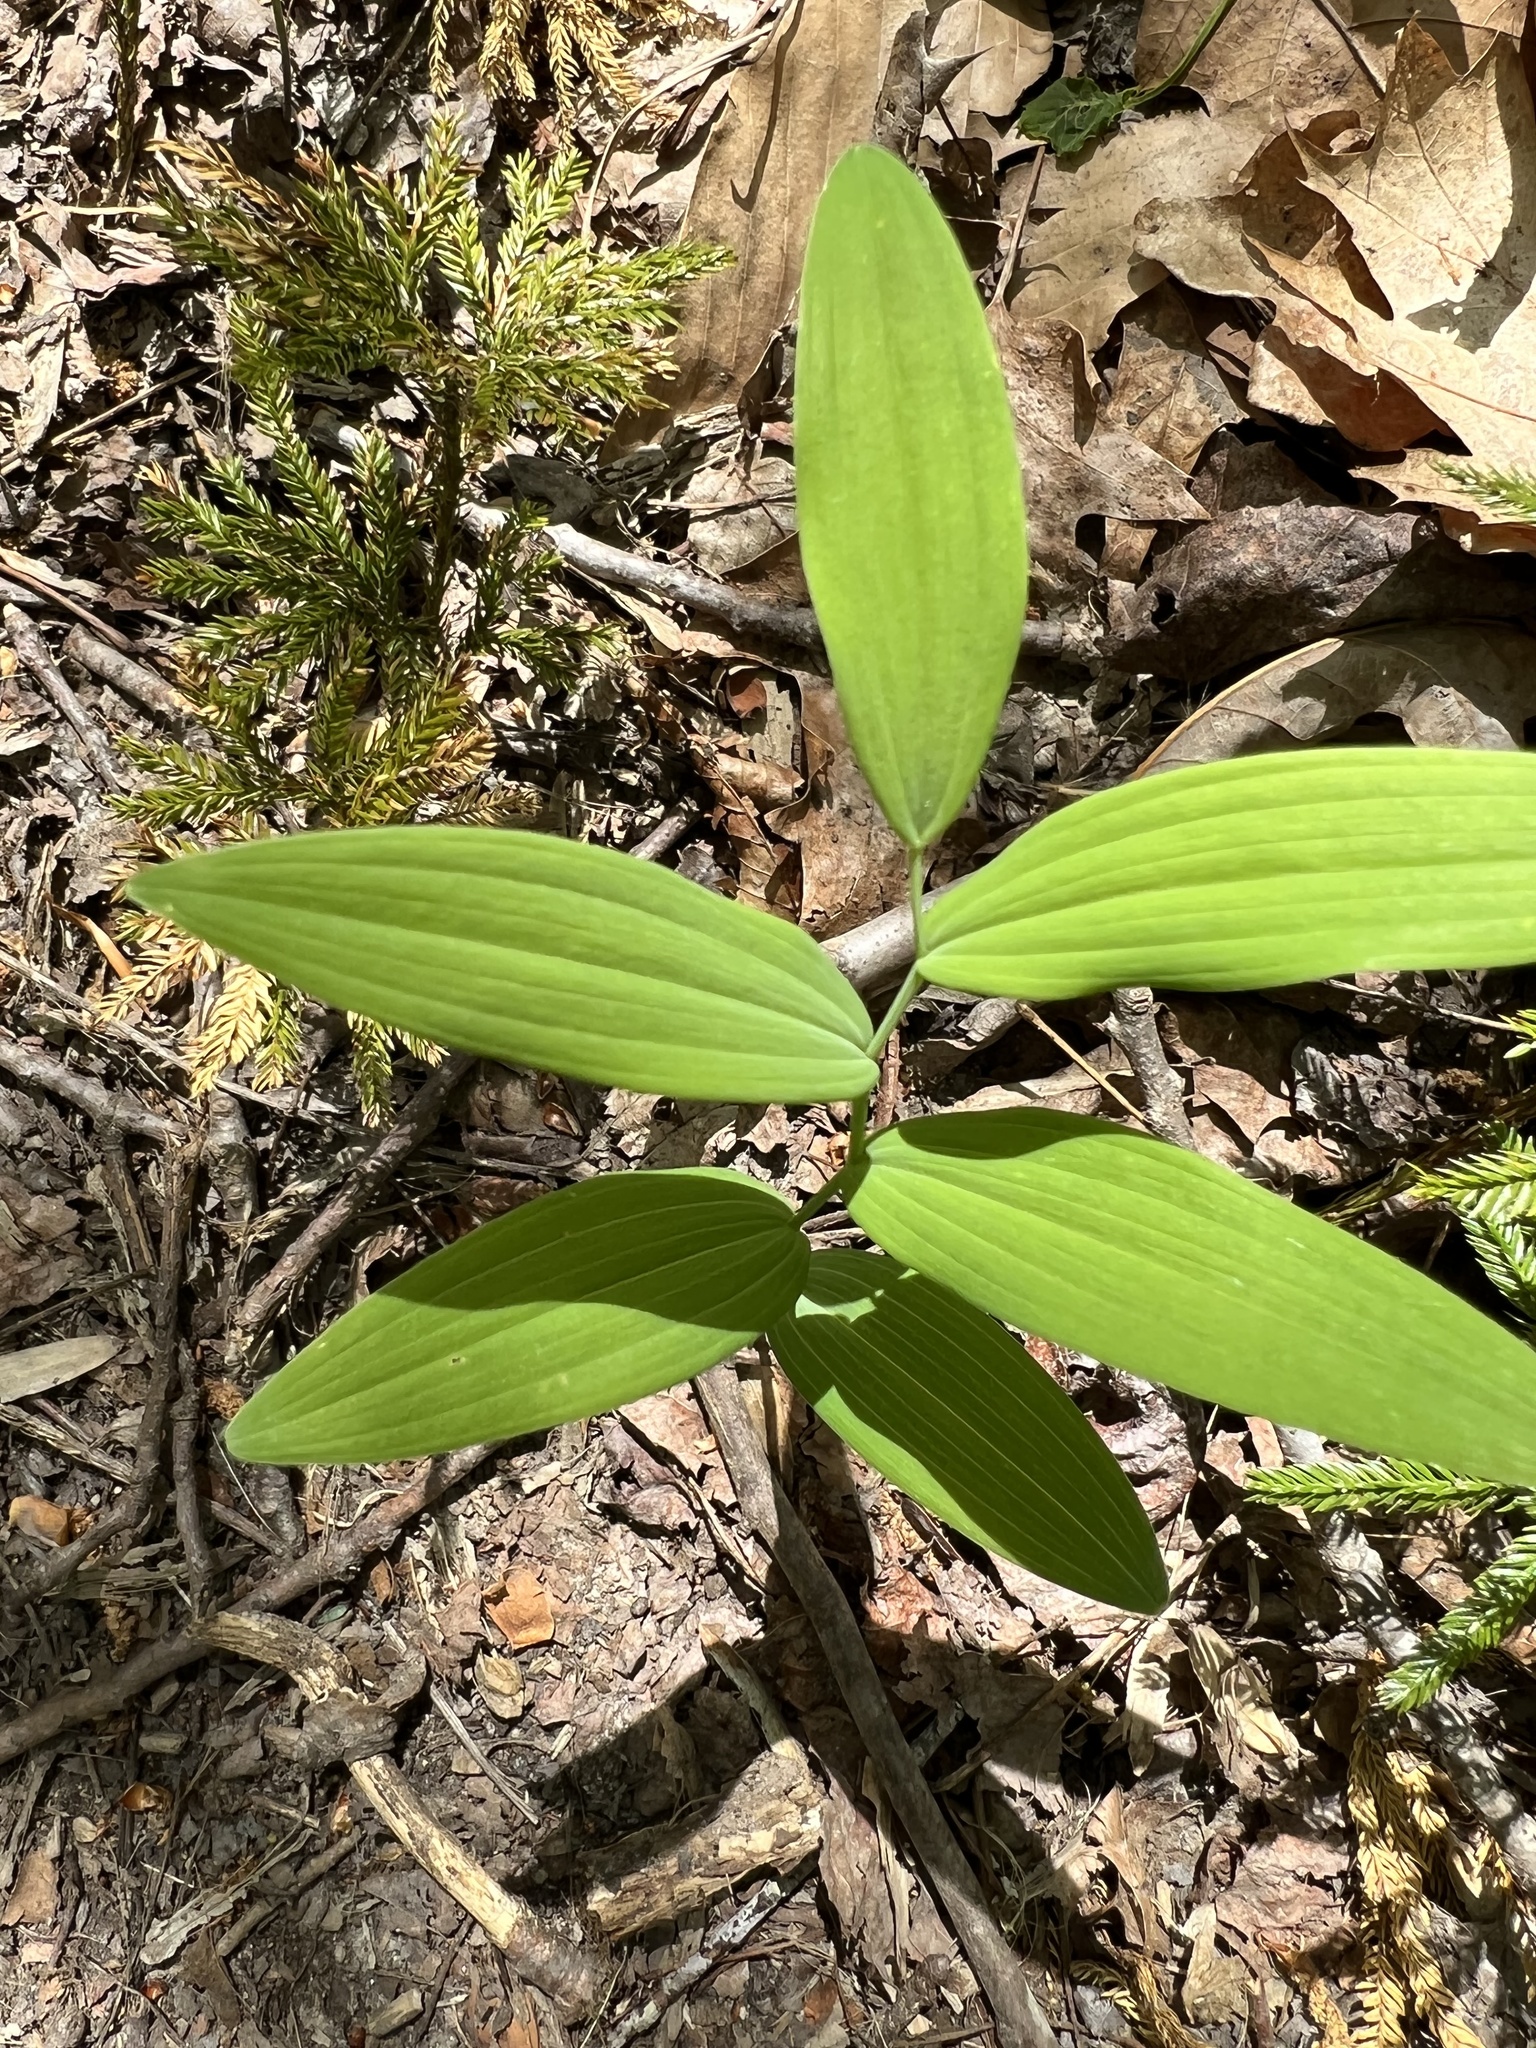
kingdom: Plantae
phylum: Tracheophyta
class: Liliopsida
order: Asparagales
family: Asparagaceae
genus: Polygonatum
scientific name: Polygonatum biflorum
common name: American solomon's-seal
